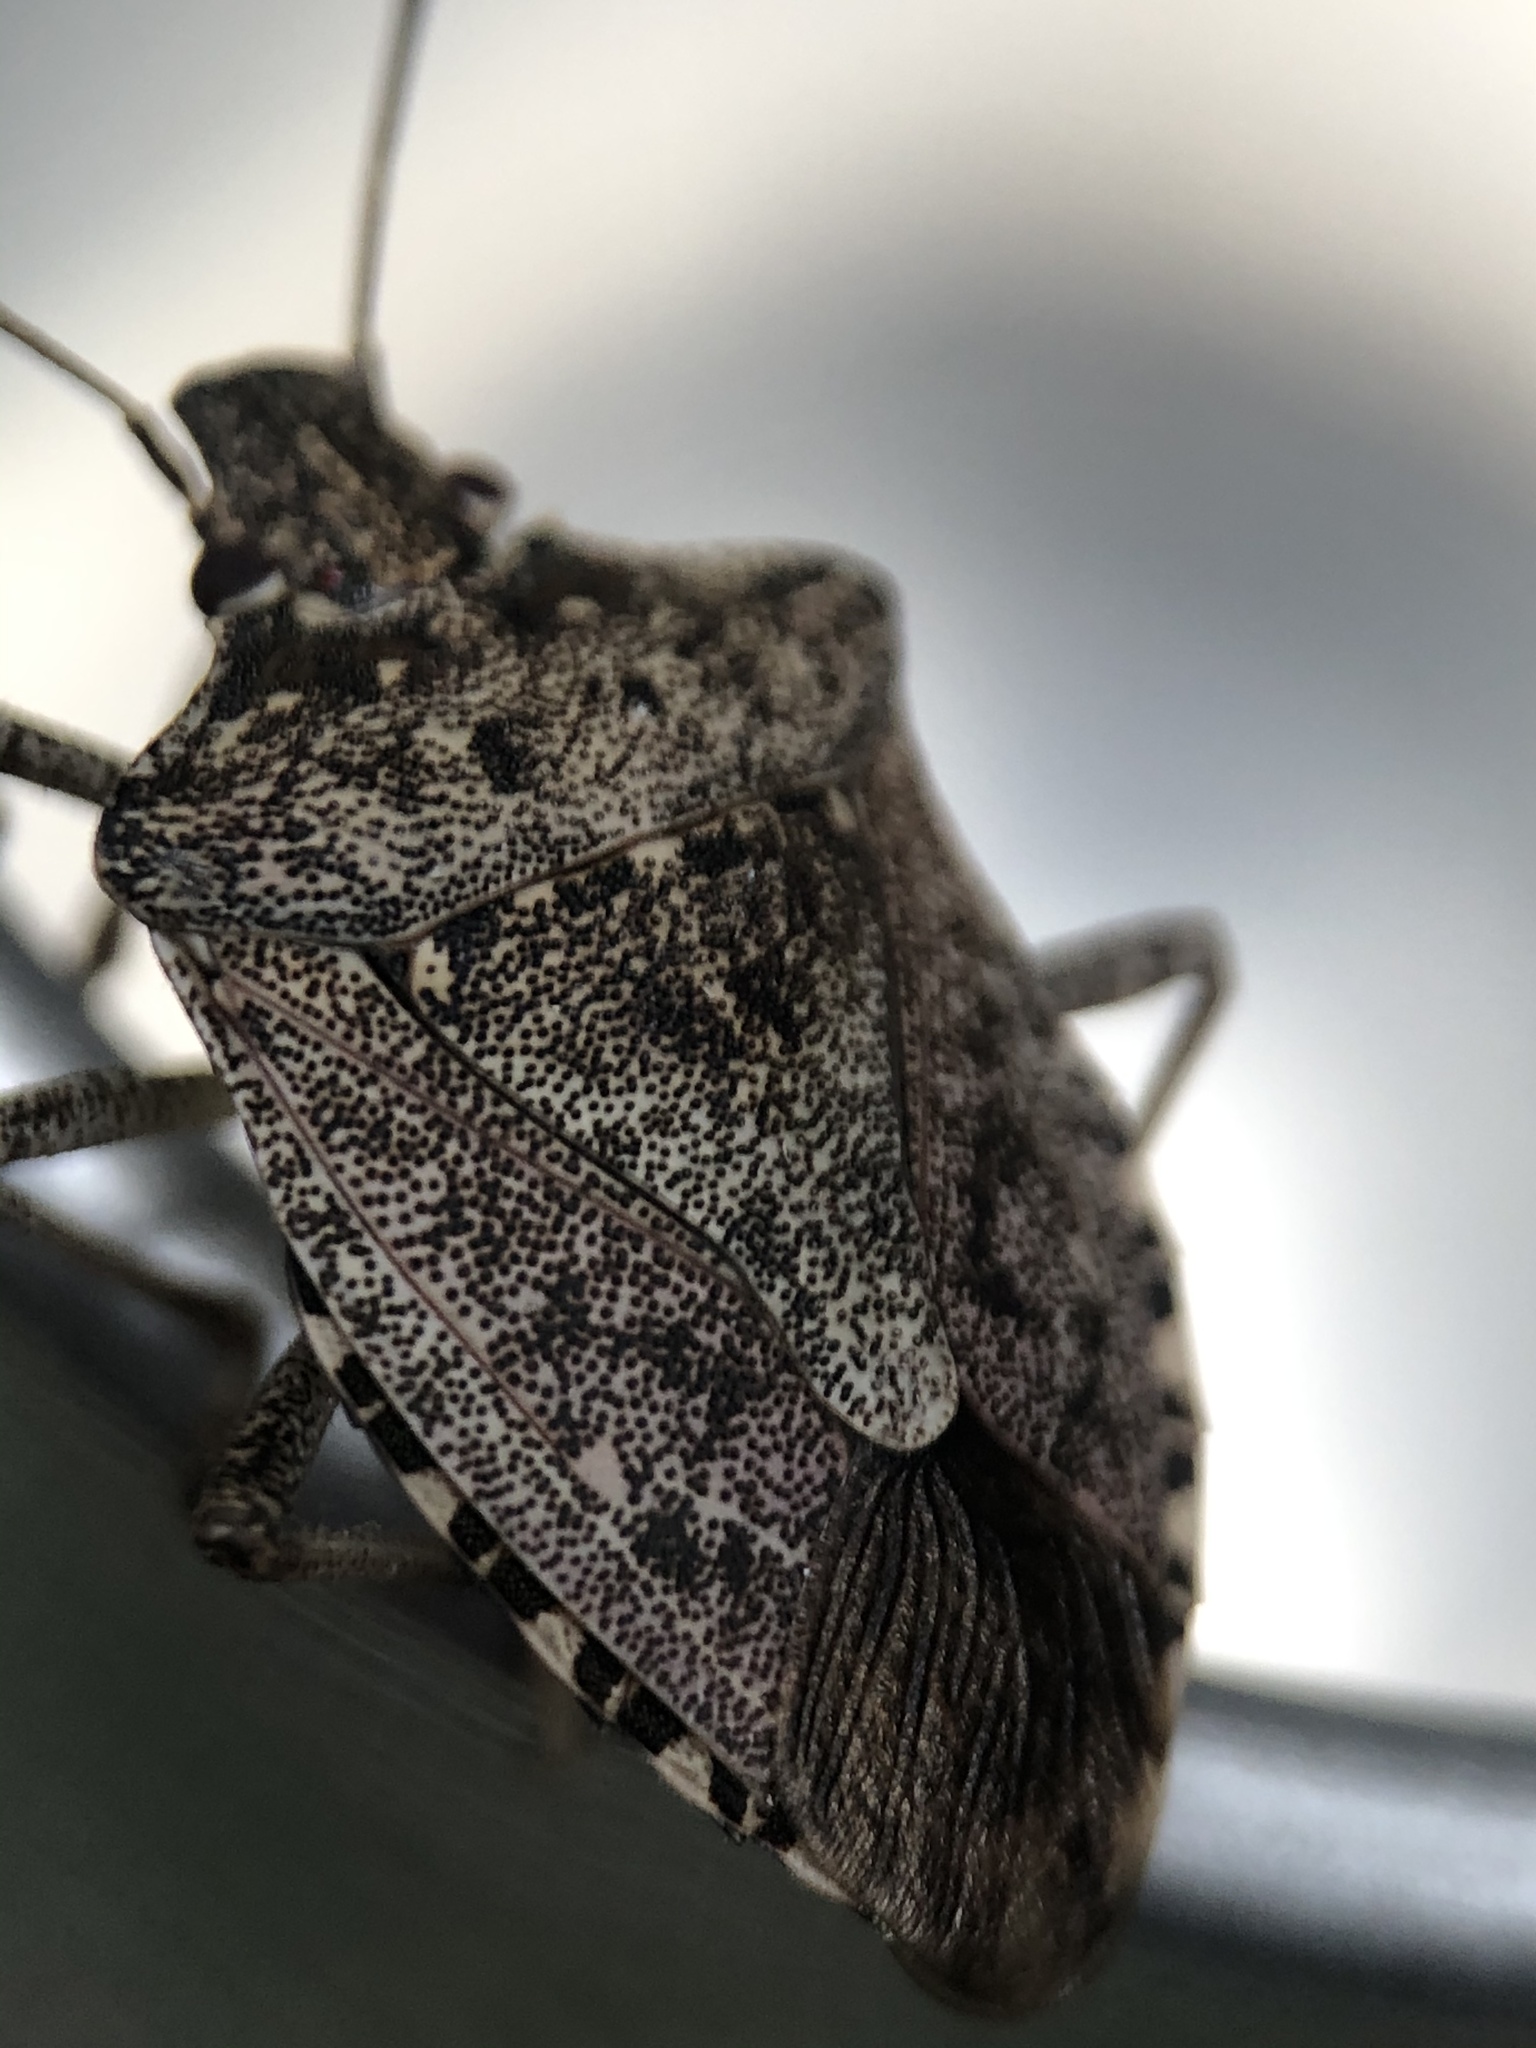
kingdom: Animalia
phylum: Arthropoda
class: Insecta
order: Hemiptera
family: Pentatomidae
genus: Halyomorpha
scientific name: Halyomorpha halys
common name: Brown marmorated stink bug
